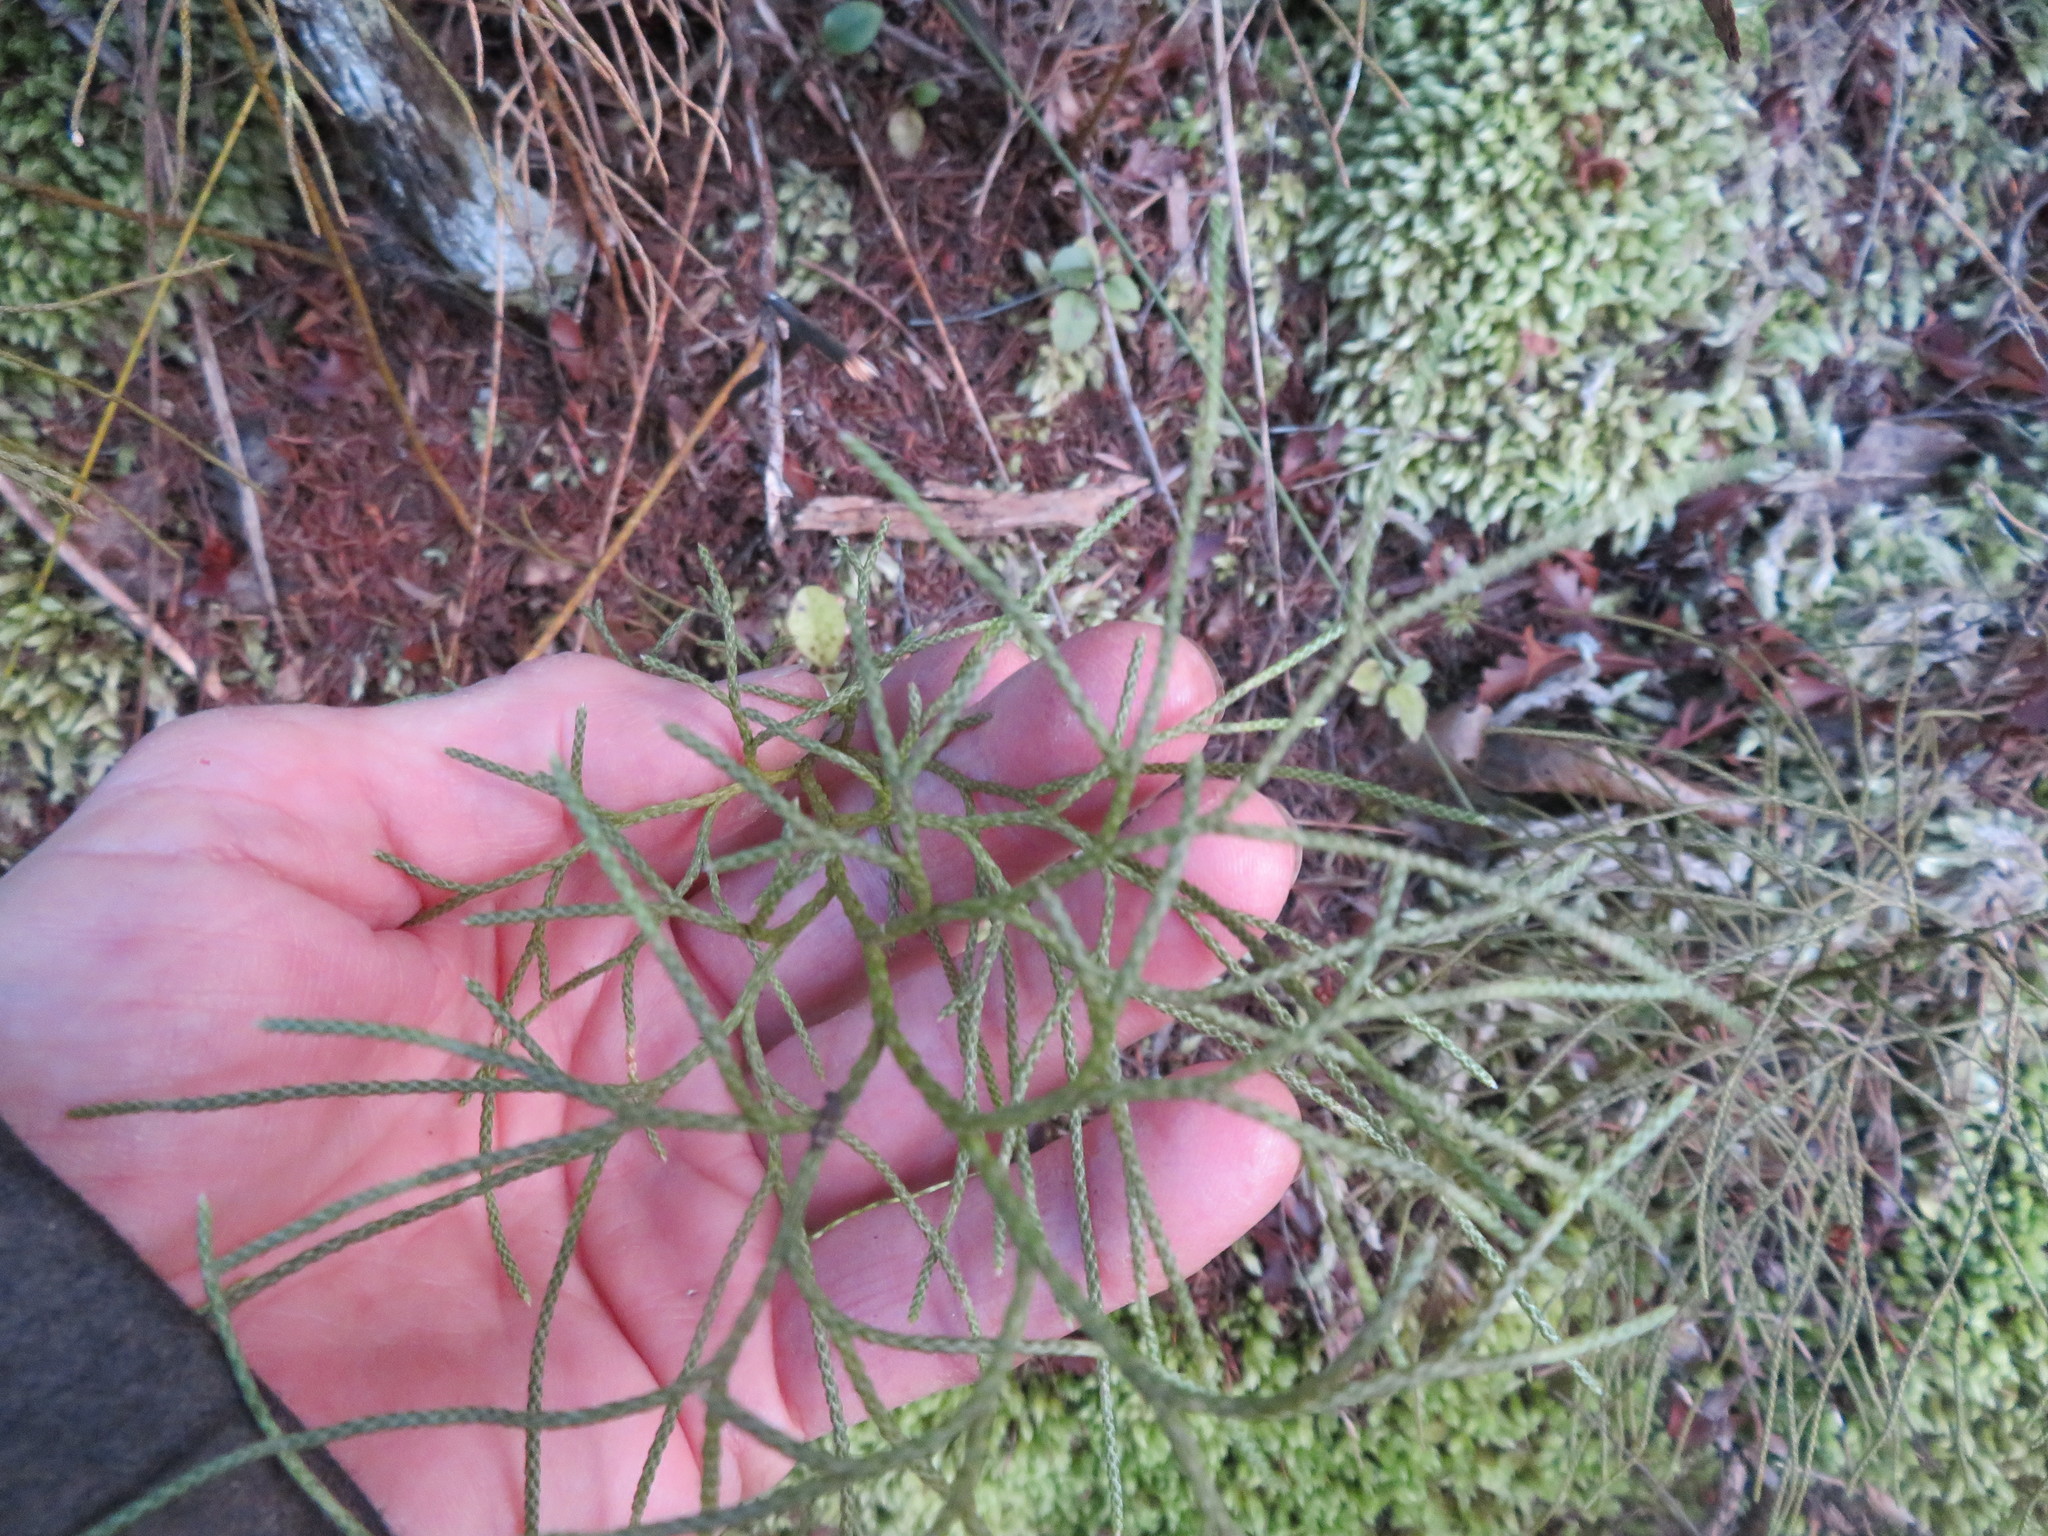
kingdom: Plantae
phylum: Tracheophyta
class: Lycopodiopsida
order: Lycopodiales
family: Lycopodiaceae
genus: Pseudolycopodium
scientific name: Pseudolycopodium densum
